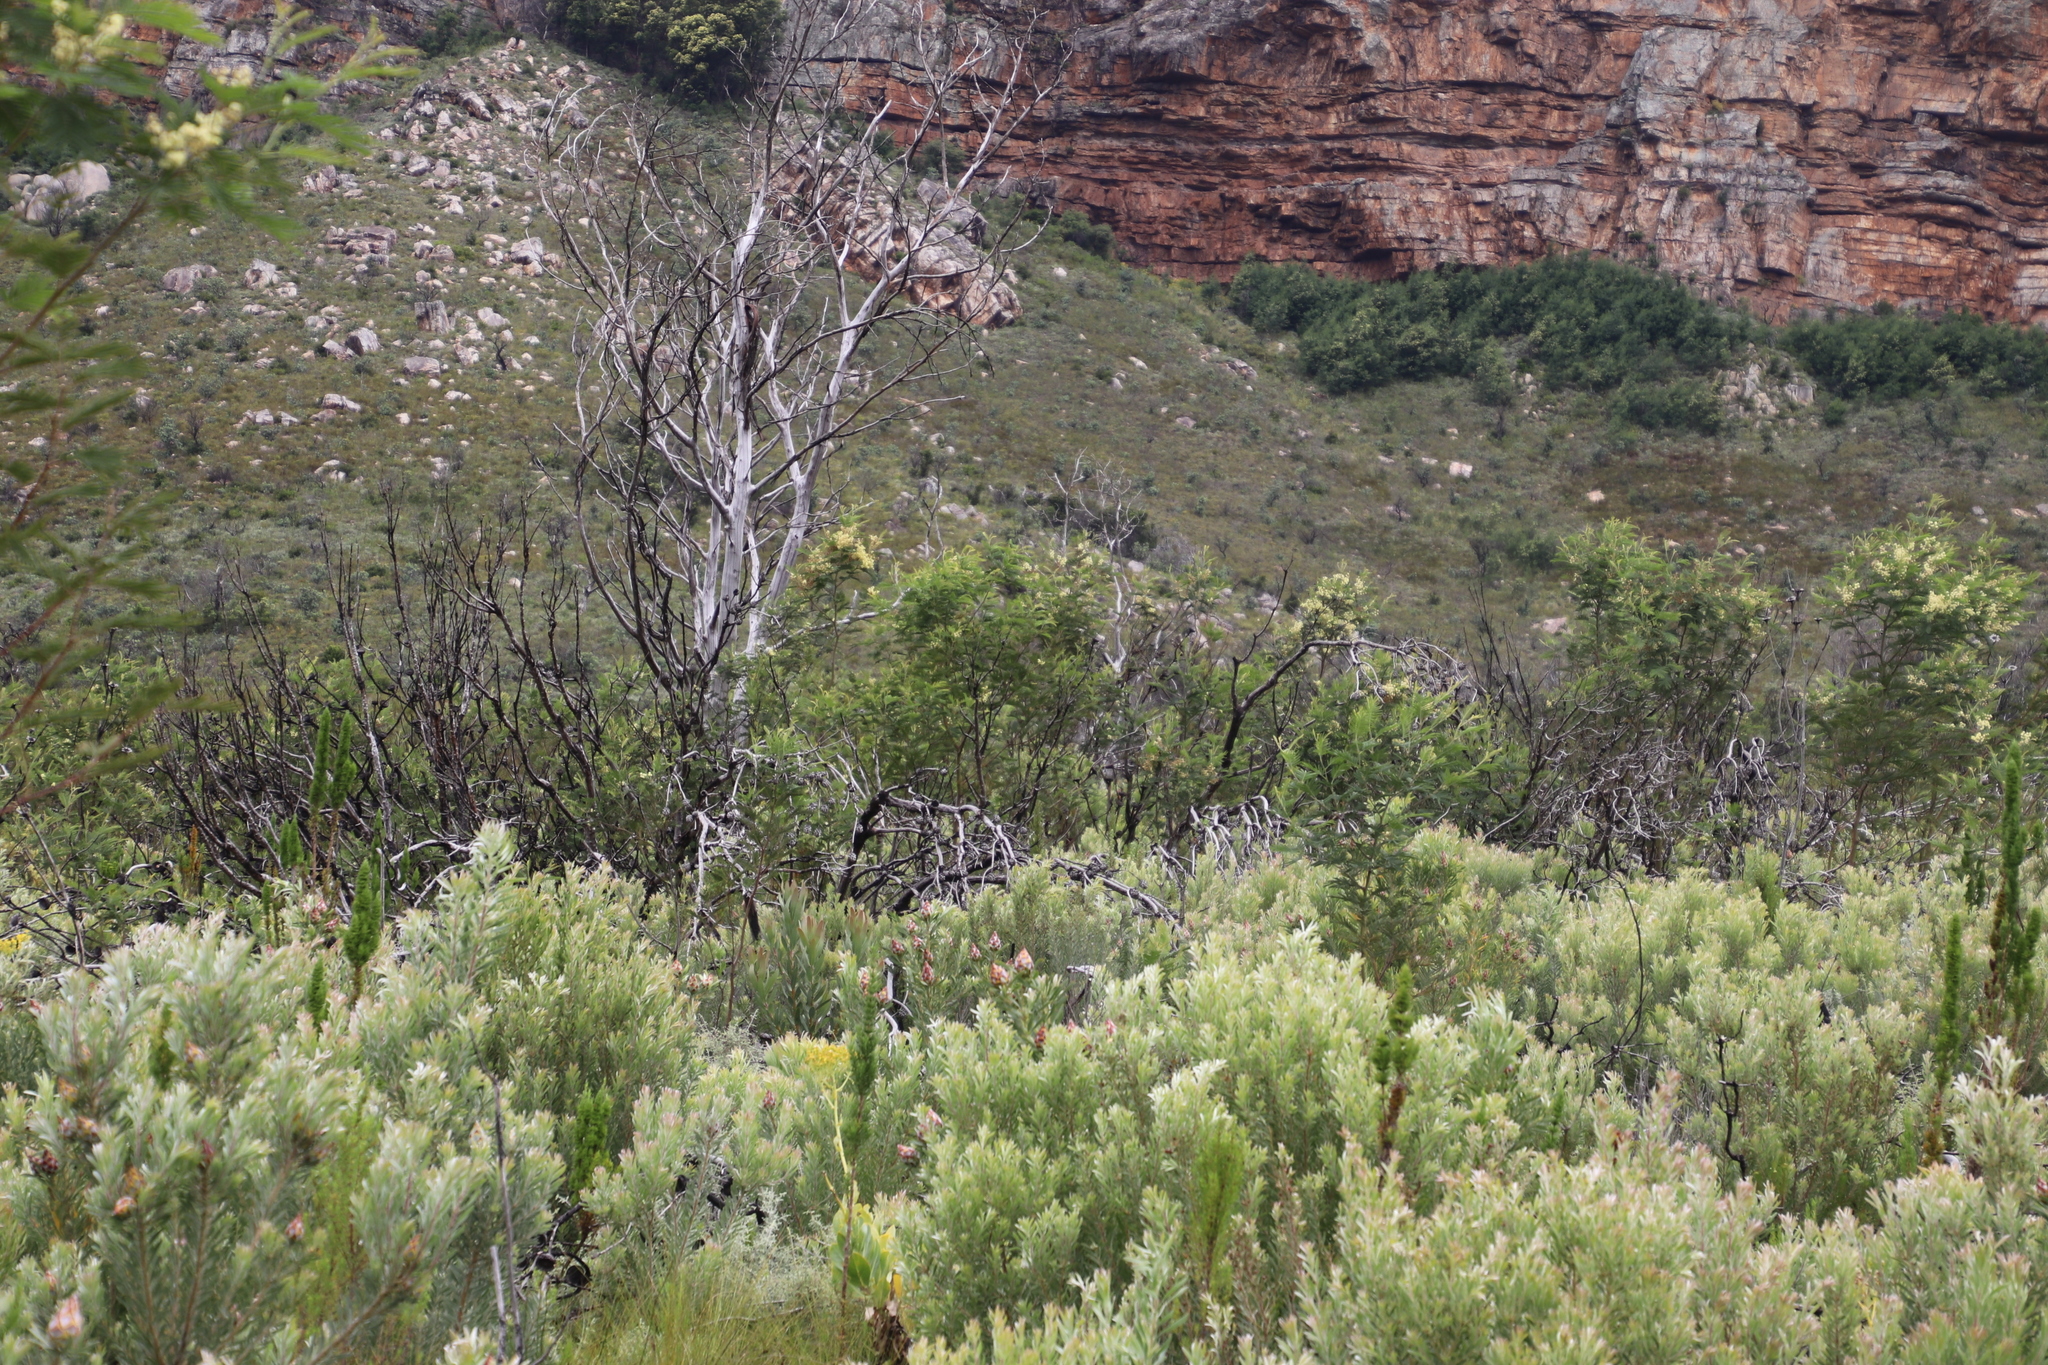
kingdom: Plantae
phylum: Tracheophyta
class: Magnoliopsida
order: Fabales
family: Fabaceae
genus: Acacia
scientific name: Acacia mearnsii
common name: Black wattle
